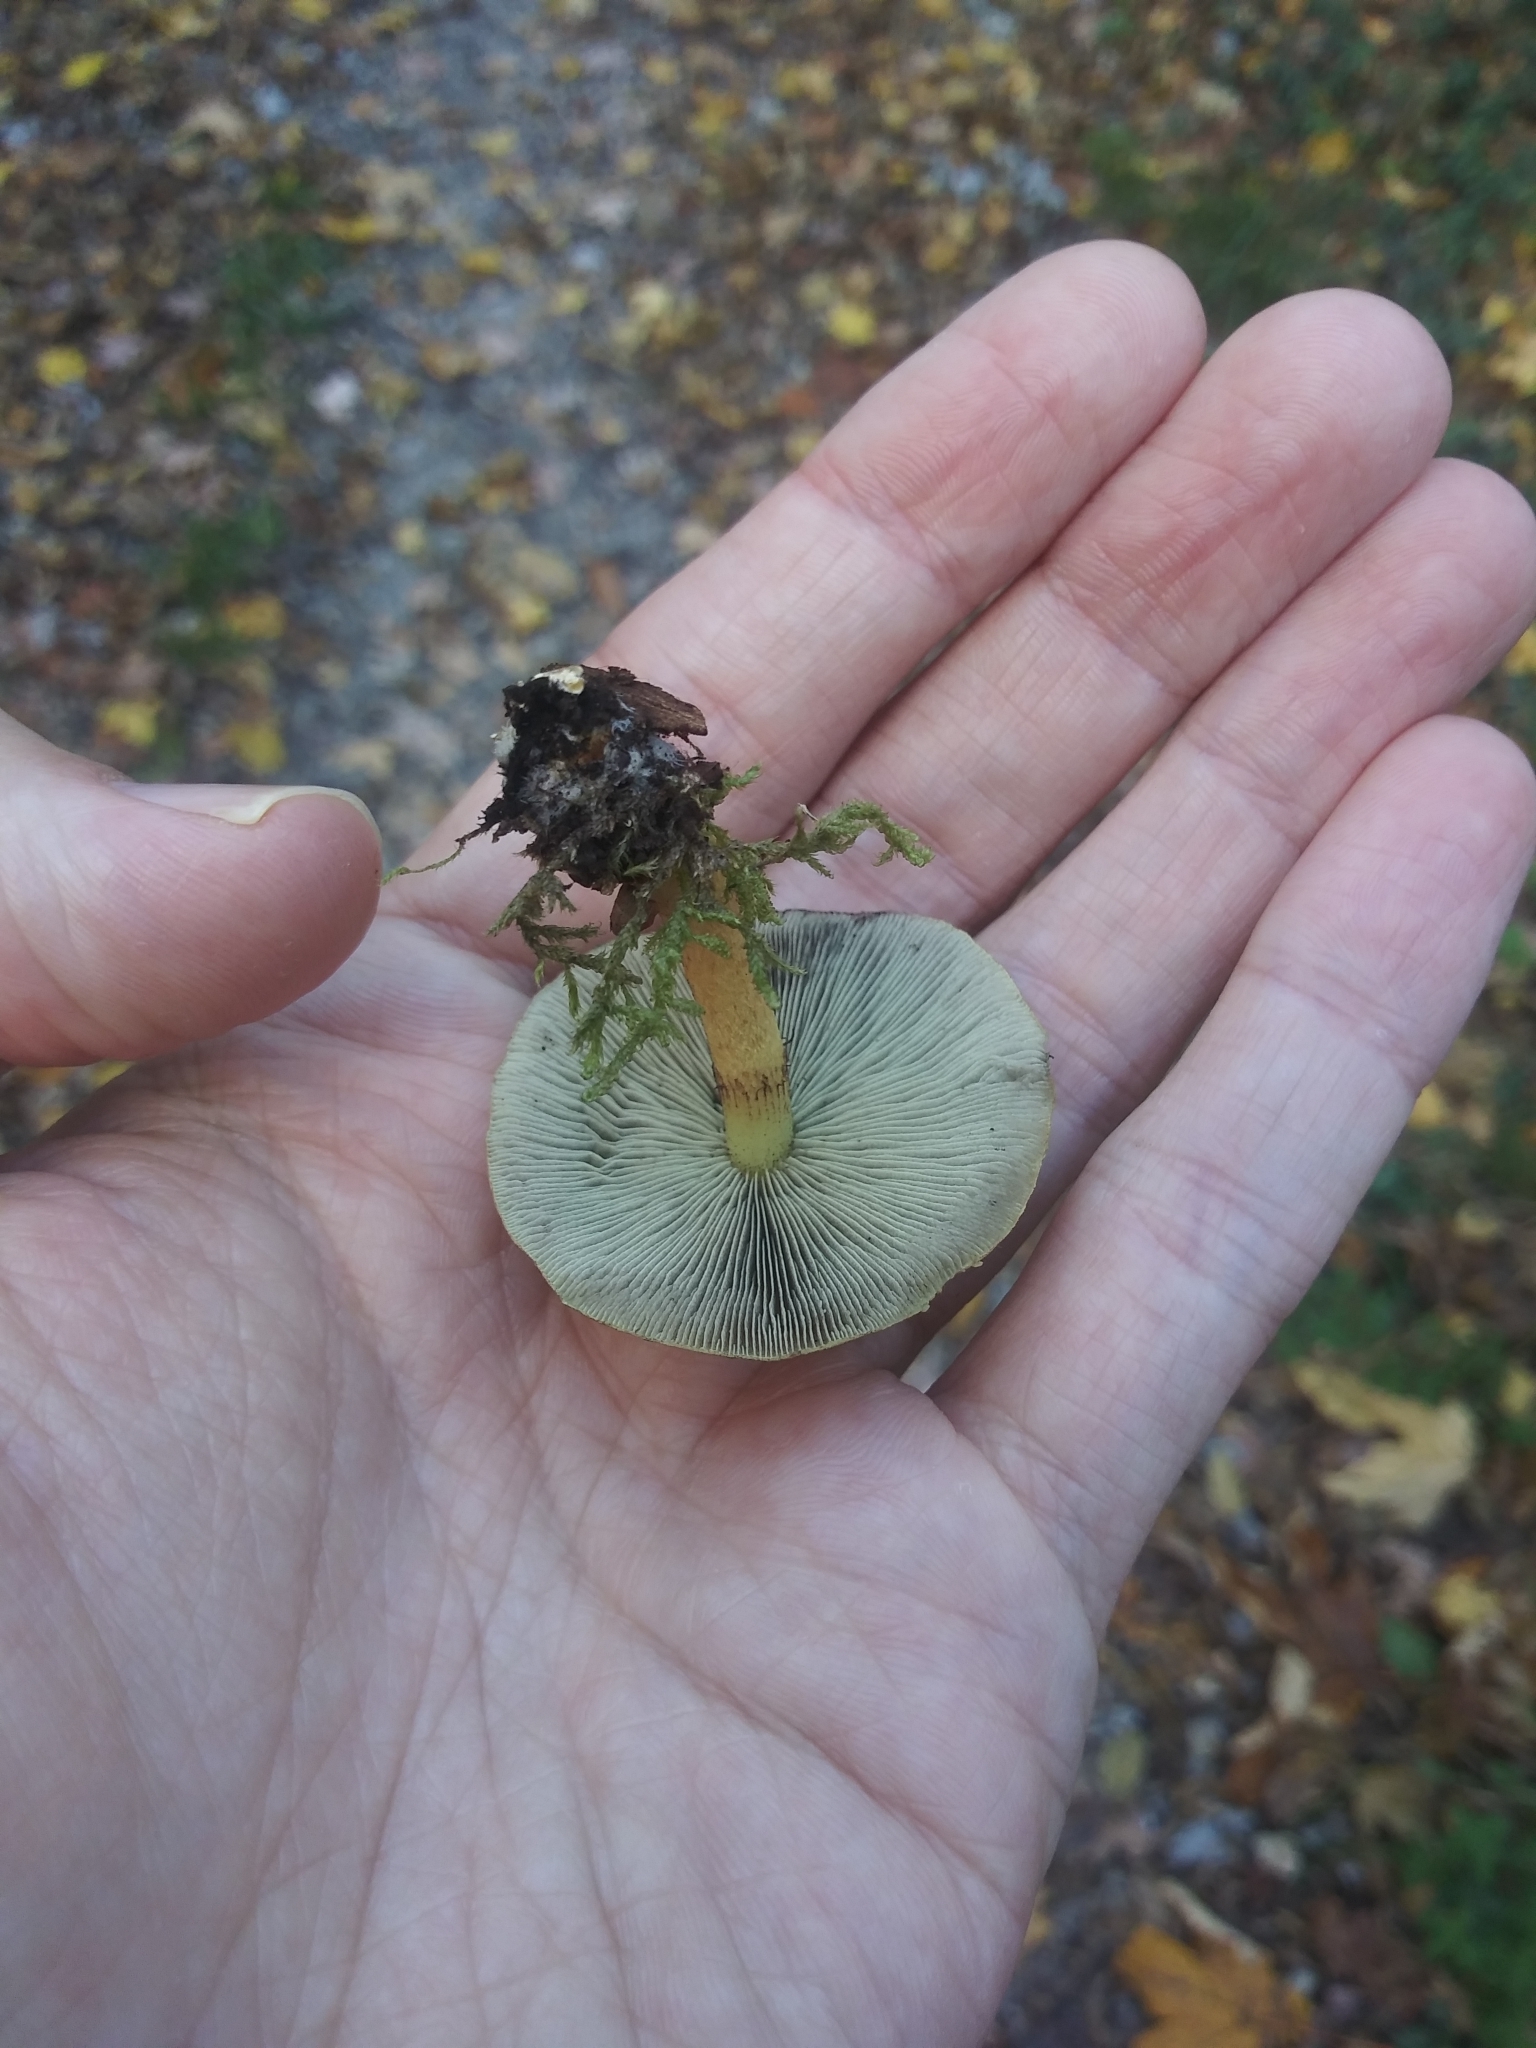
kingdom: Fungi
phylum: Basidiomycota
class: Agaricomycetes
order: Agaricales
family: Strophariaceae
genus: Hypholoma
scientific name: Hypholoma fasciculare
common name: Sulphur tuft
